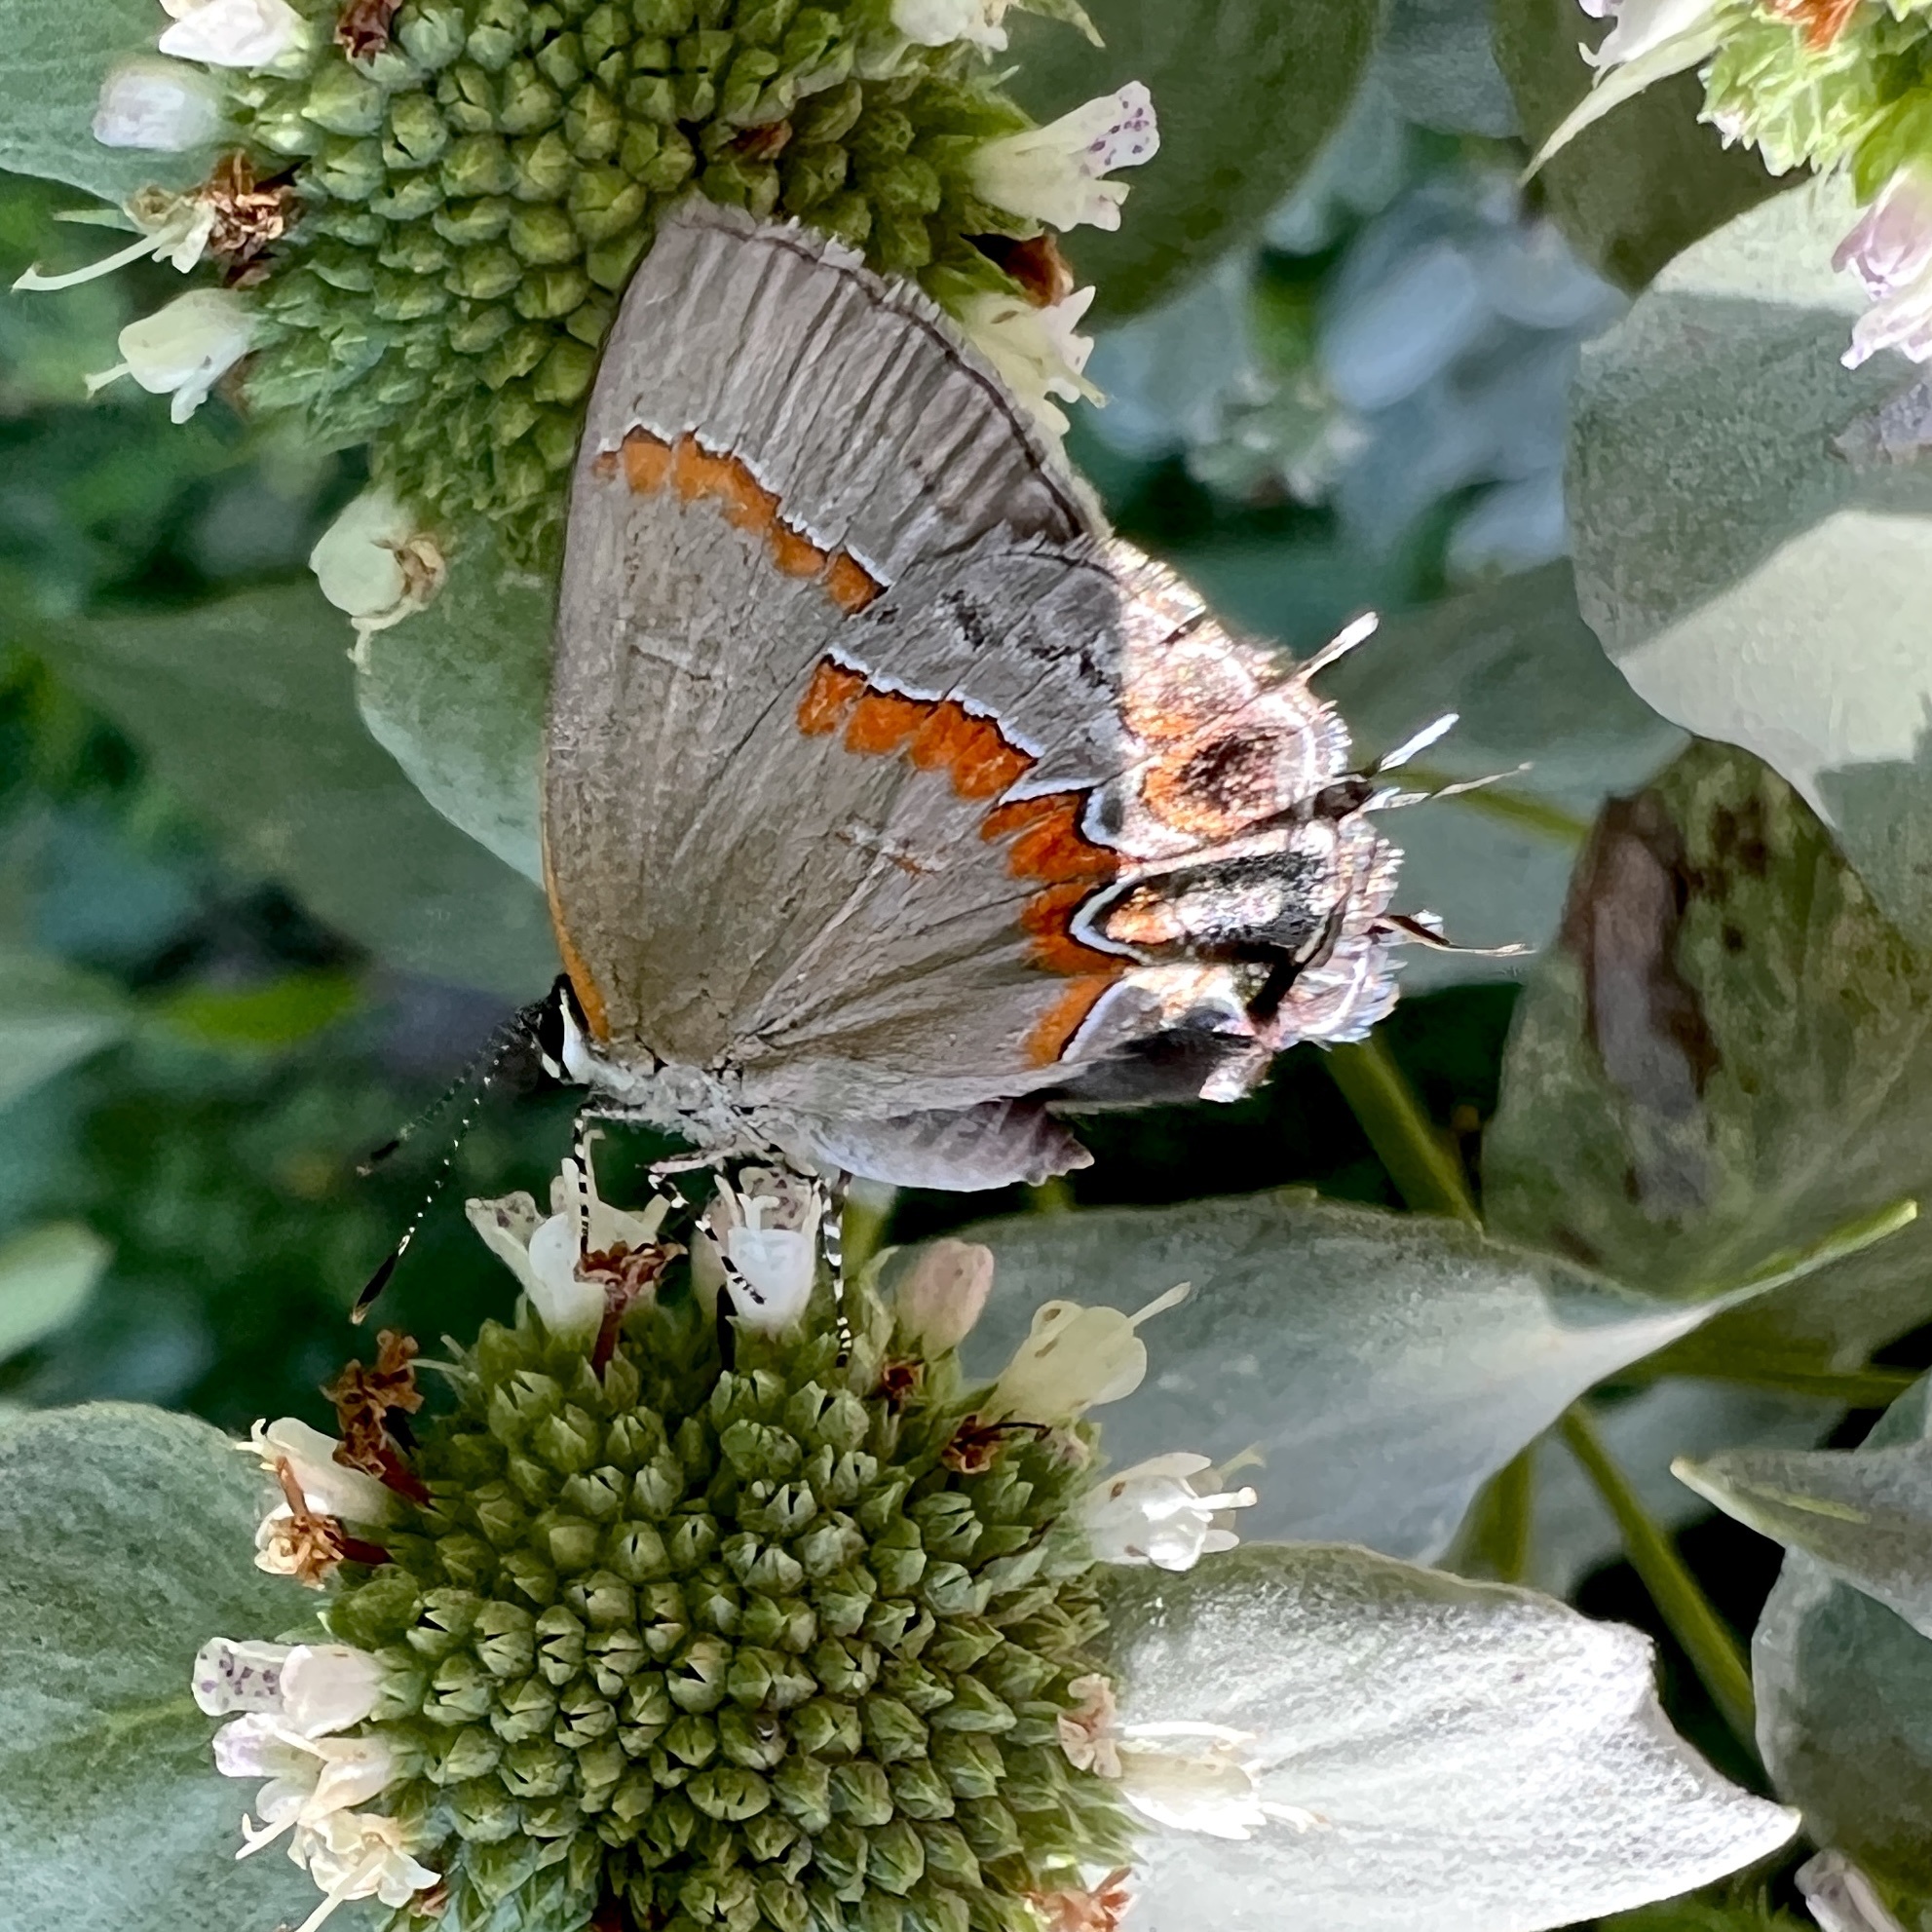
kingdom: Animalia
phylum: Arthropoda
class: Insecta
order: Lepidoptera
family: Lycaenidae
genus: Calycopis
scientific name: Calycopis cecrops
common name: Red-banded hairstreak
